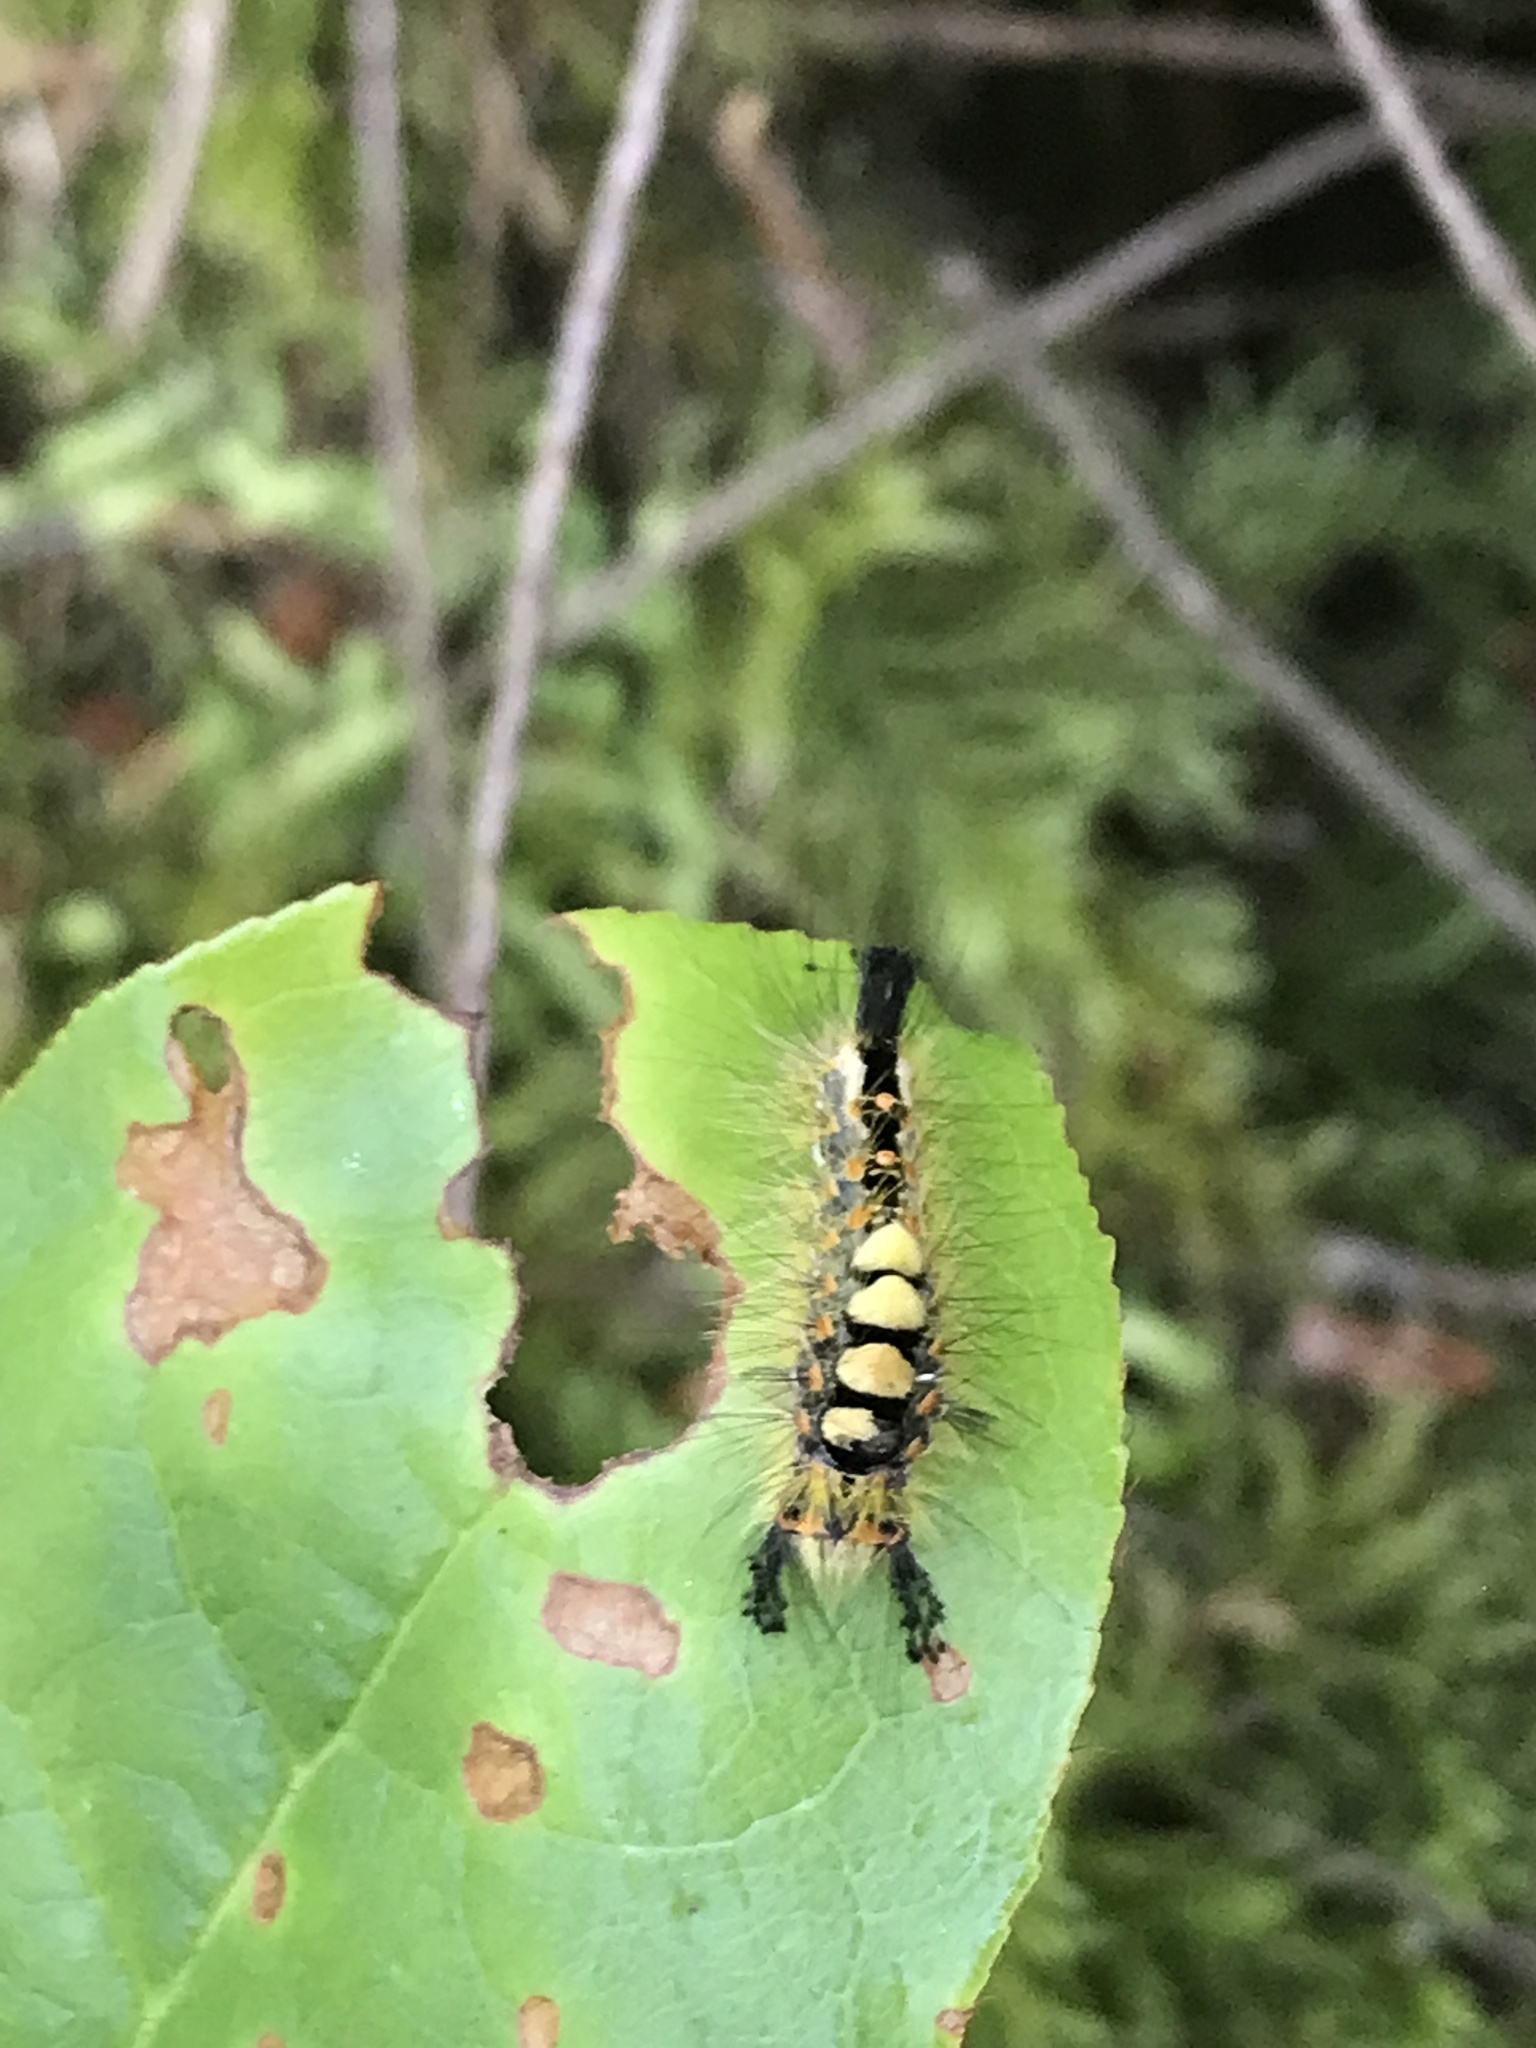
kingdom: Animalia
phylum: Arthropoda
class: Insecta
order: Lepidoptera
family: Erebidae
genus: Orgyia
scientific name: Orgyia antiqua
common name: Vapourer
